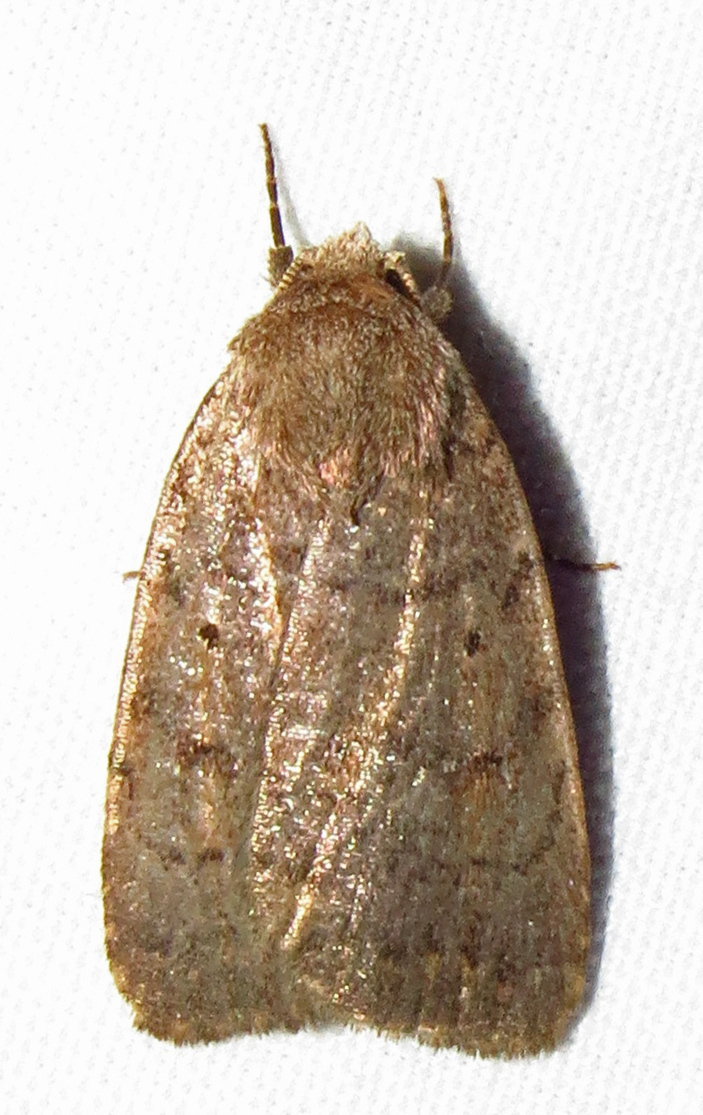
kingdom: Animalia
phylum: Arthropoda
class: Insecta
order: Lepidoptera
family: Noctuidae
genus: Athetis
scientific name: Athetis tarda
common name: Slowpoke moth
